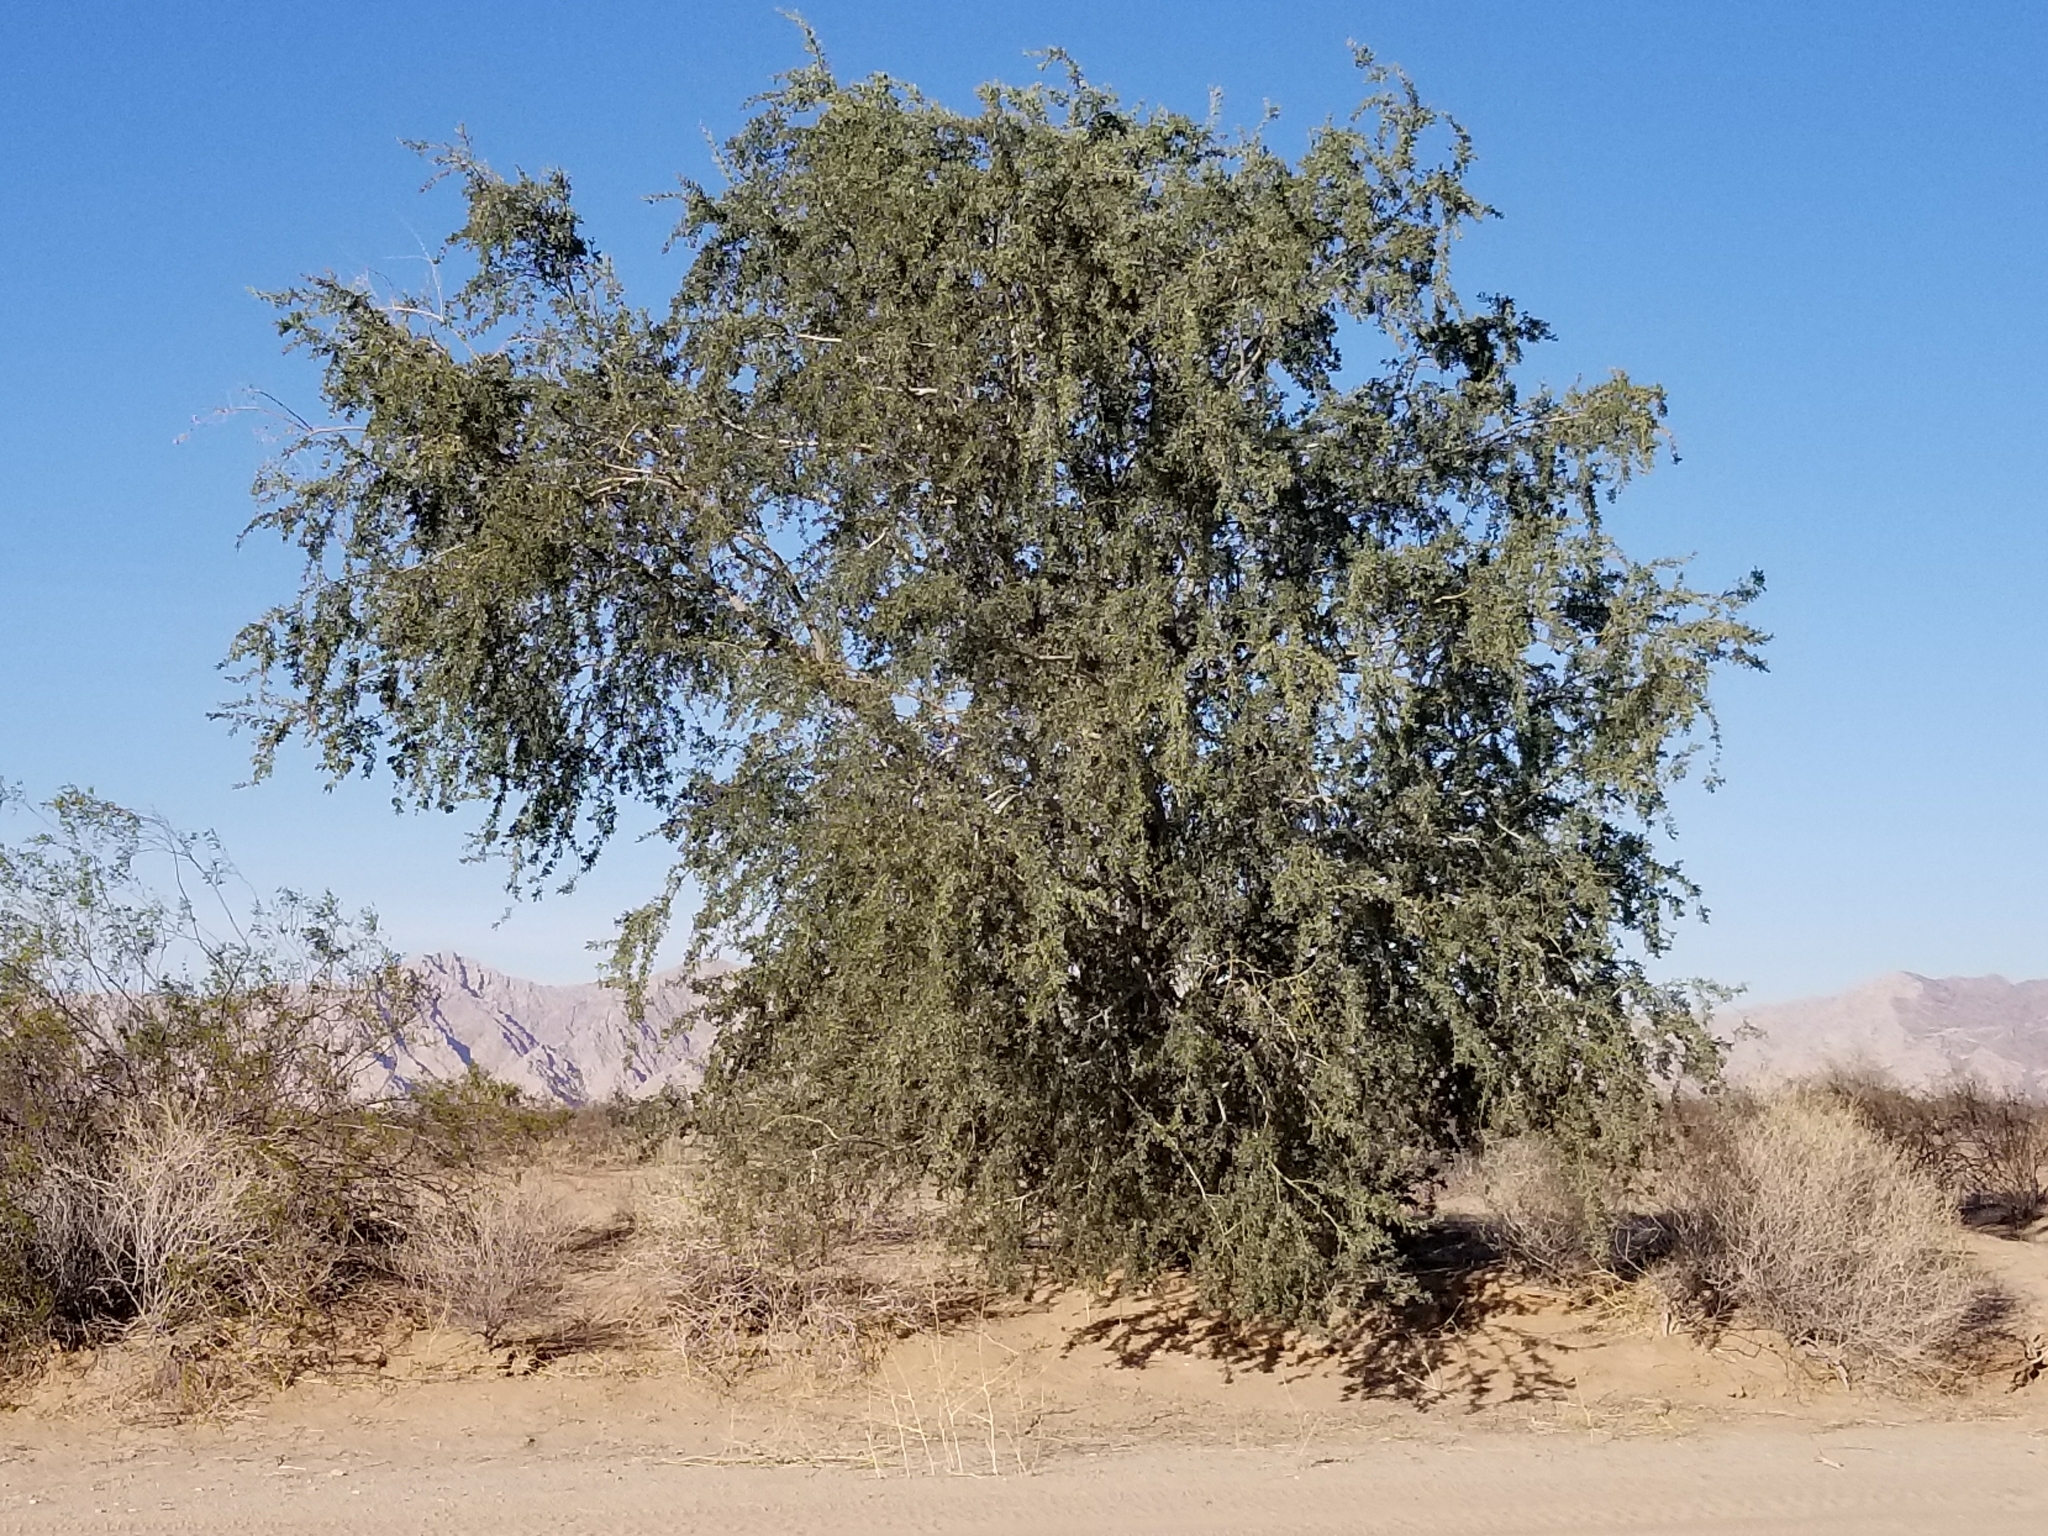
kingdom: Plantae
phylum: Tracheophyta
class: Magnoliopsida
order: Fabales
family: Fabaceae
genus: Olneya
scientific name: Olneya tesota
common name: Desert ironwood
